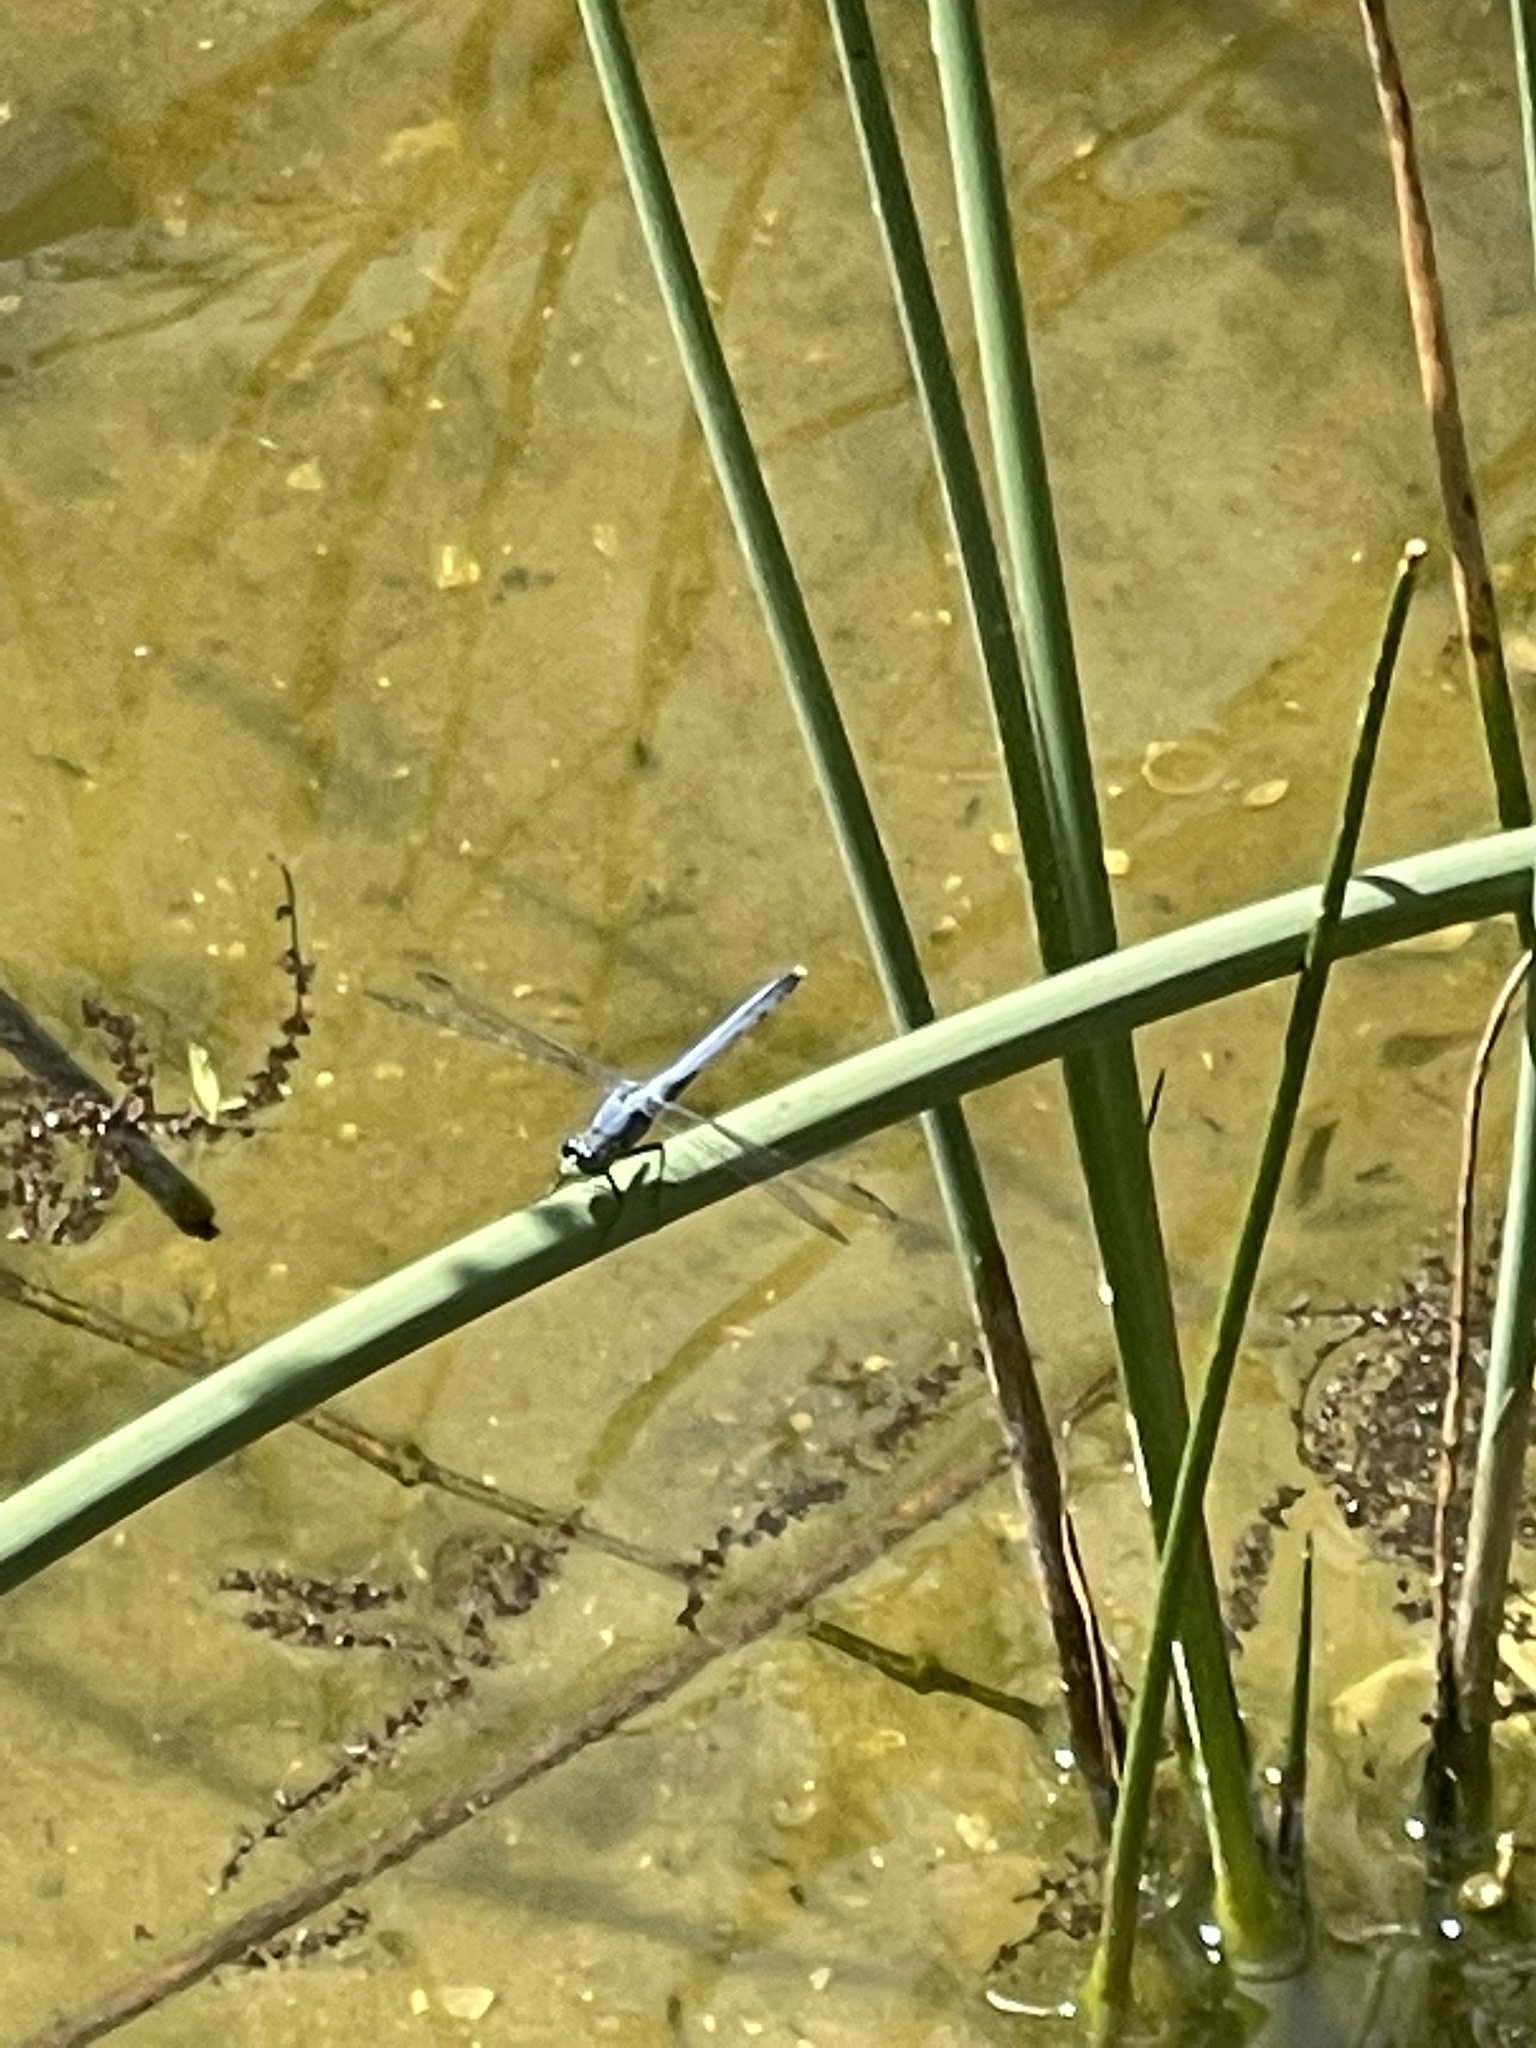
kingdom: Animalia
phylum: Arthropoda
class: Insecta
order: Odonata
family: Libellulidae
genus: Erythemis
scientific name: Erythemis simplicicollis
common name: Eastern pondhawk
